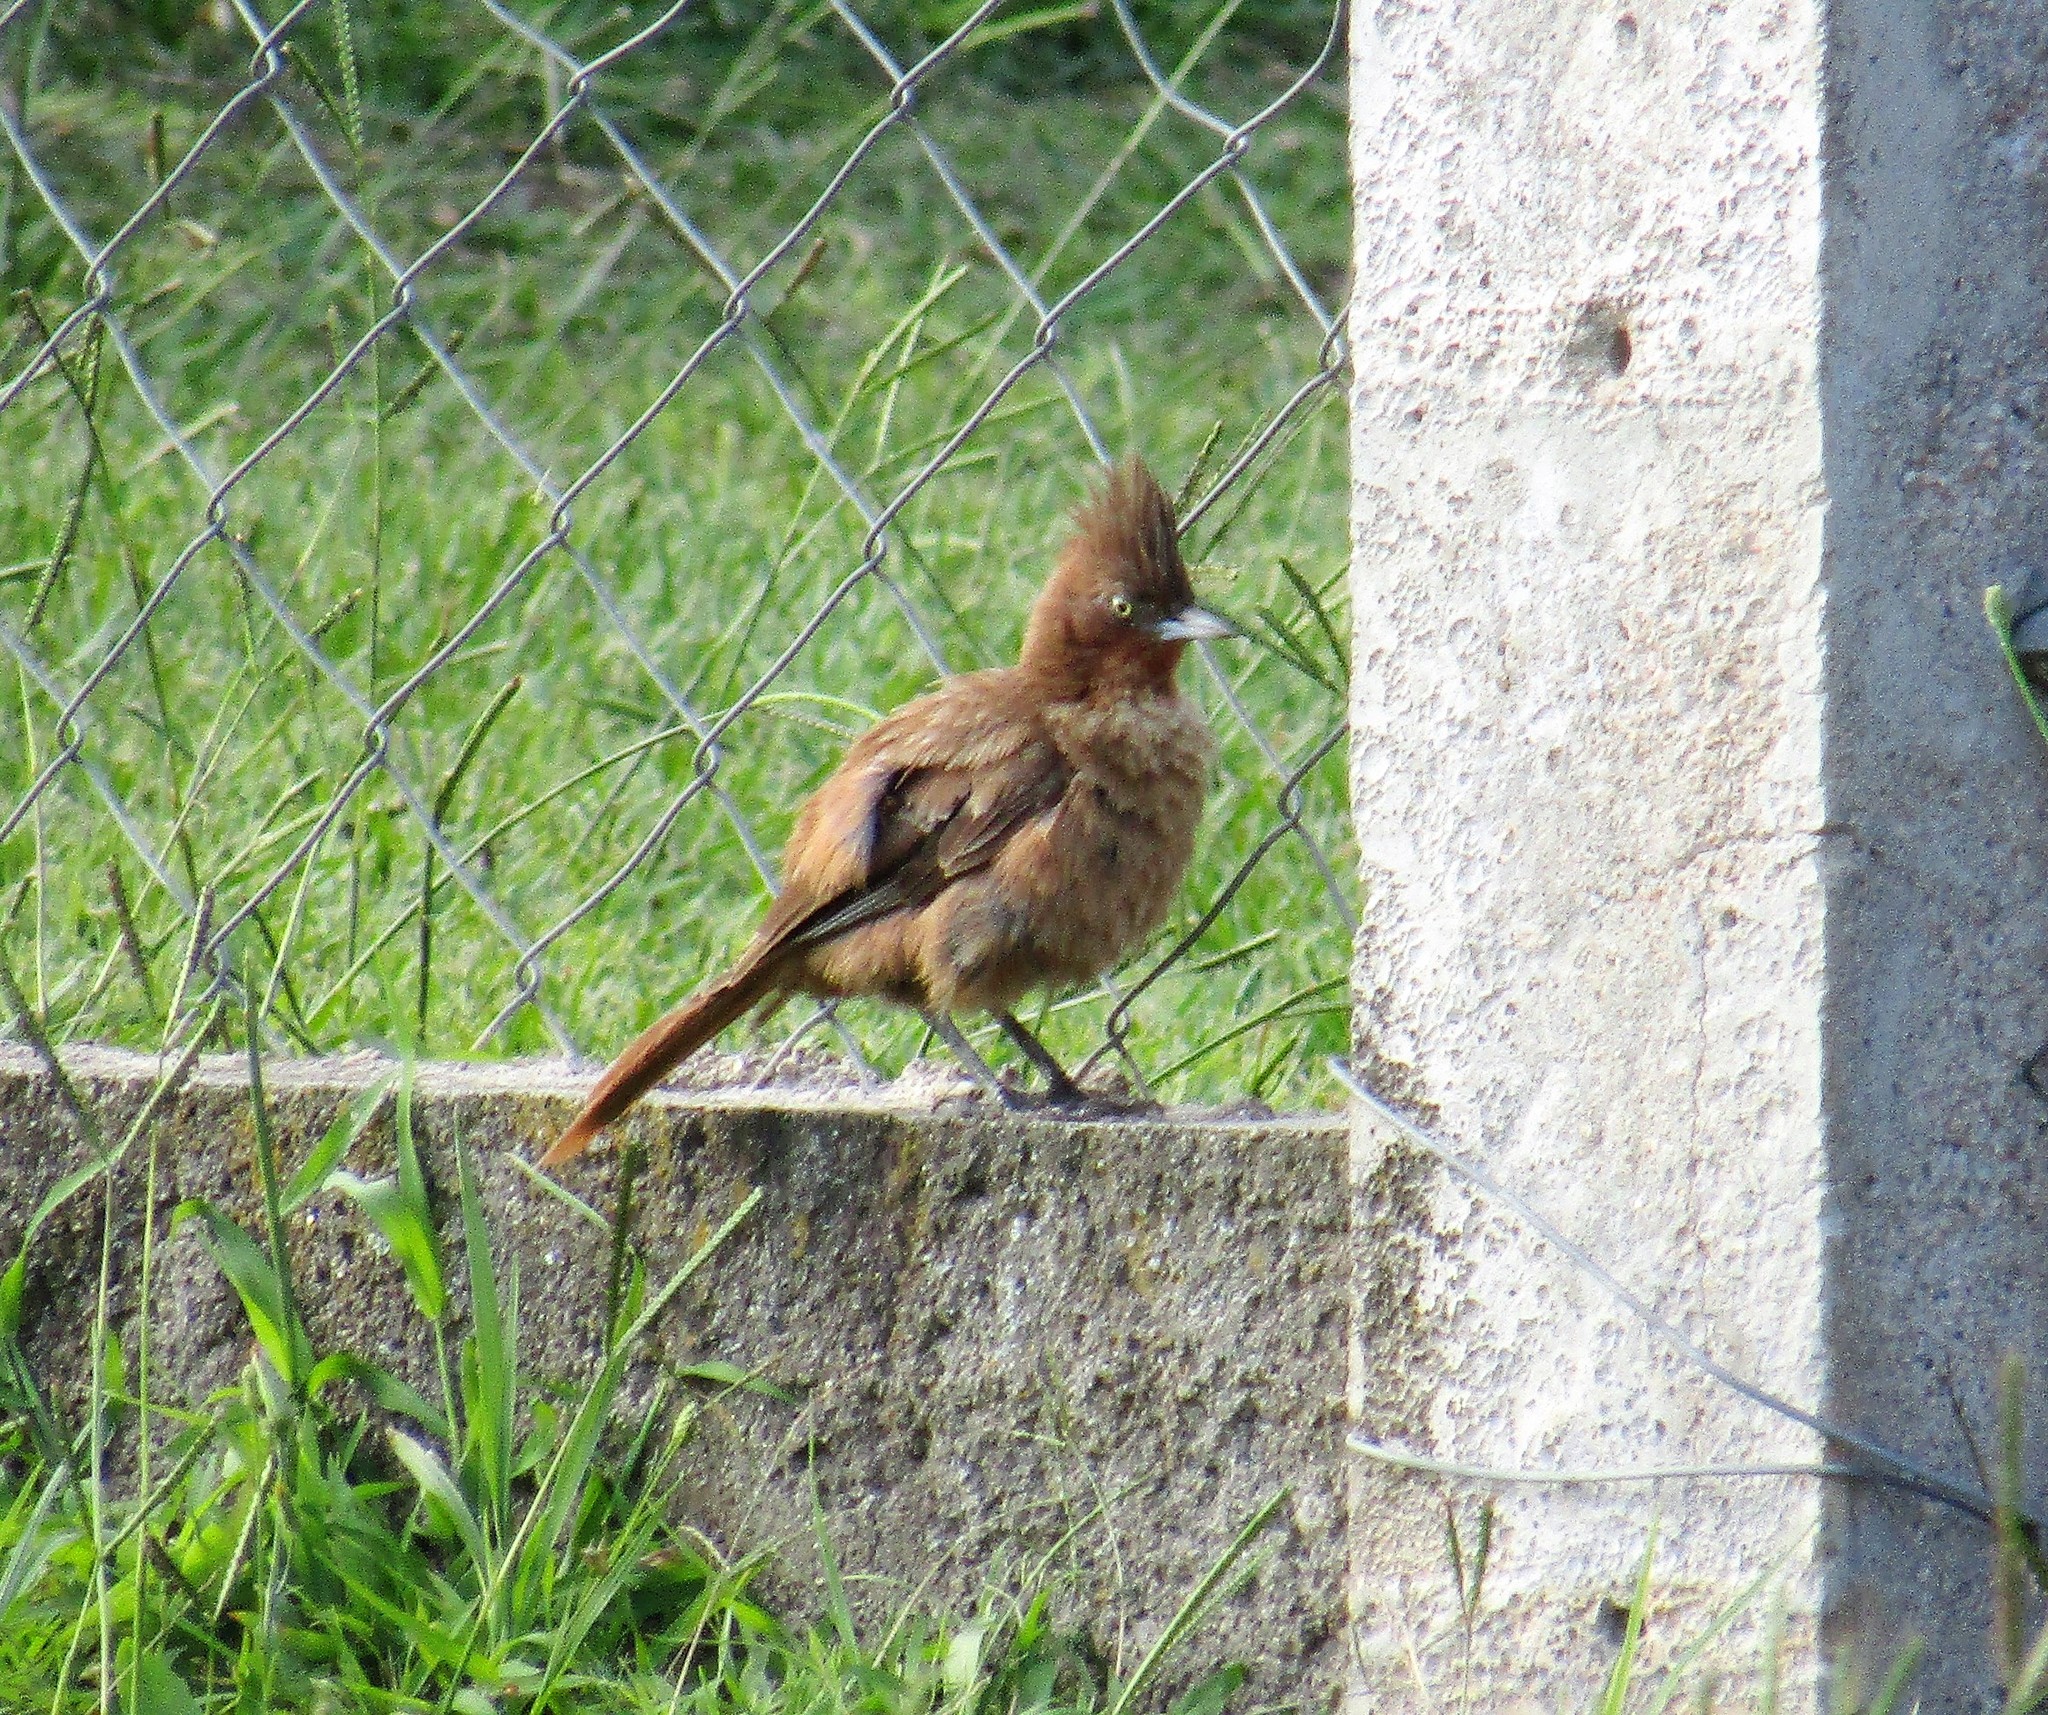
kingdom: Animalia
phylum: Chordata
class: Aves
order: Passeriformes
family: Furnariidae
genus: Pseudoseisura
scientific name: Pseudoseisura lophotes
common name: Brown cacholote
